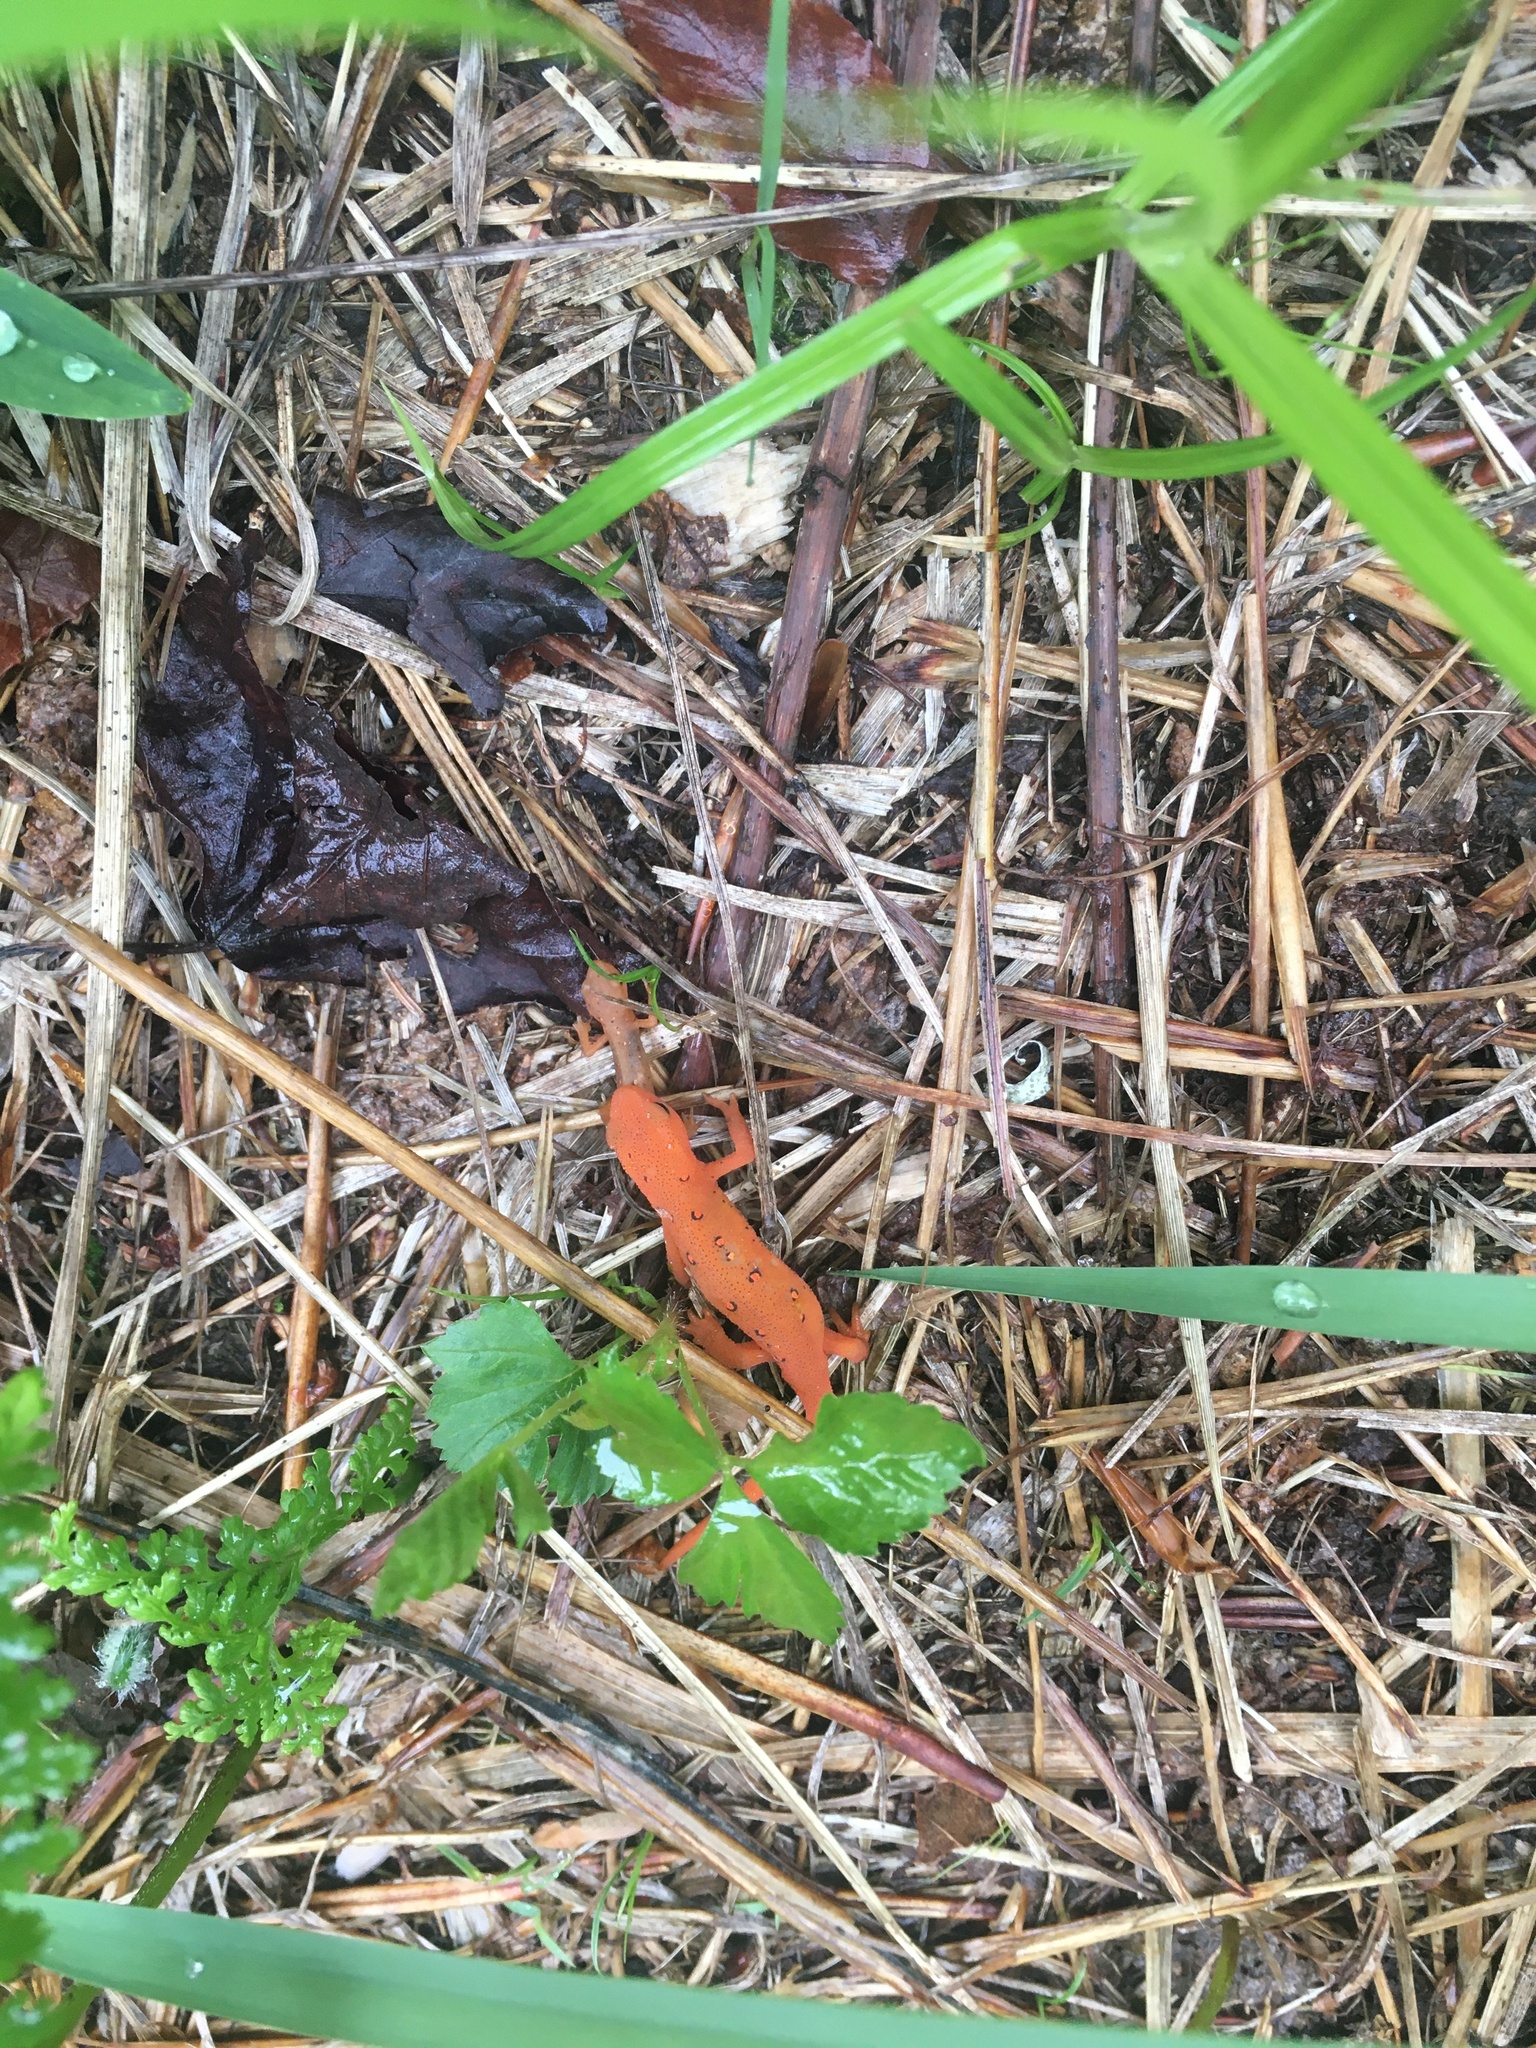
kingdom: Animalia
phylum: Chordata
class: Amphibia
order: Caudata
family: Salamandridae
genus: Notophthalmus
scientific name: Notophthalmus viridescens
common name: Eastern newt
